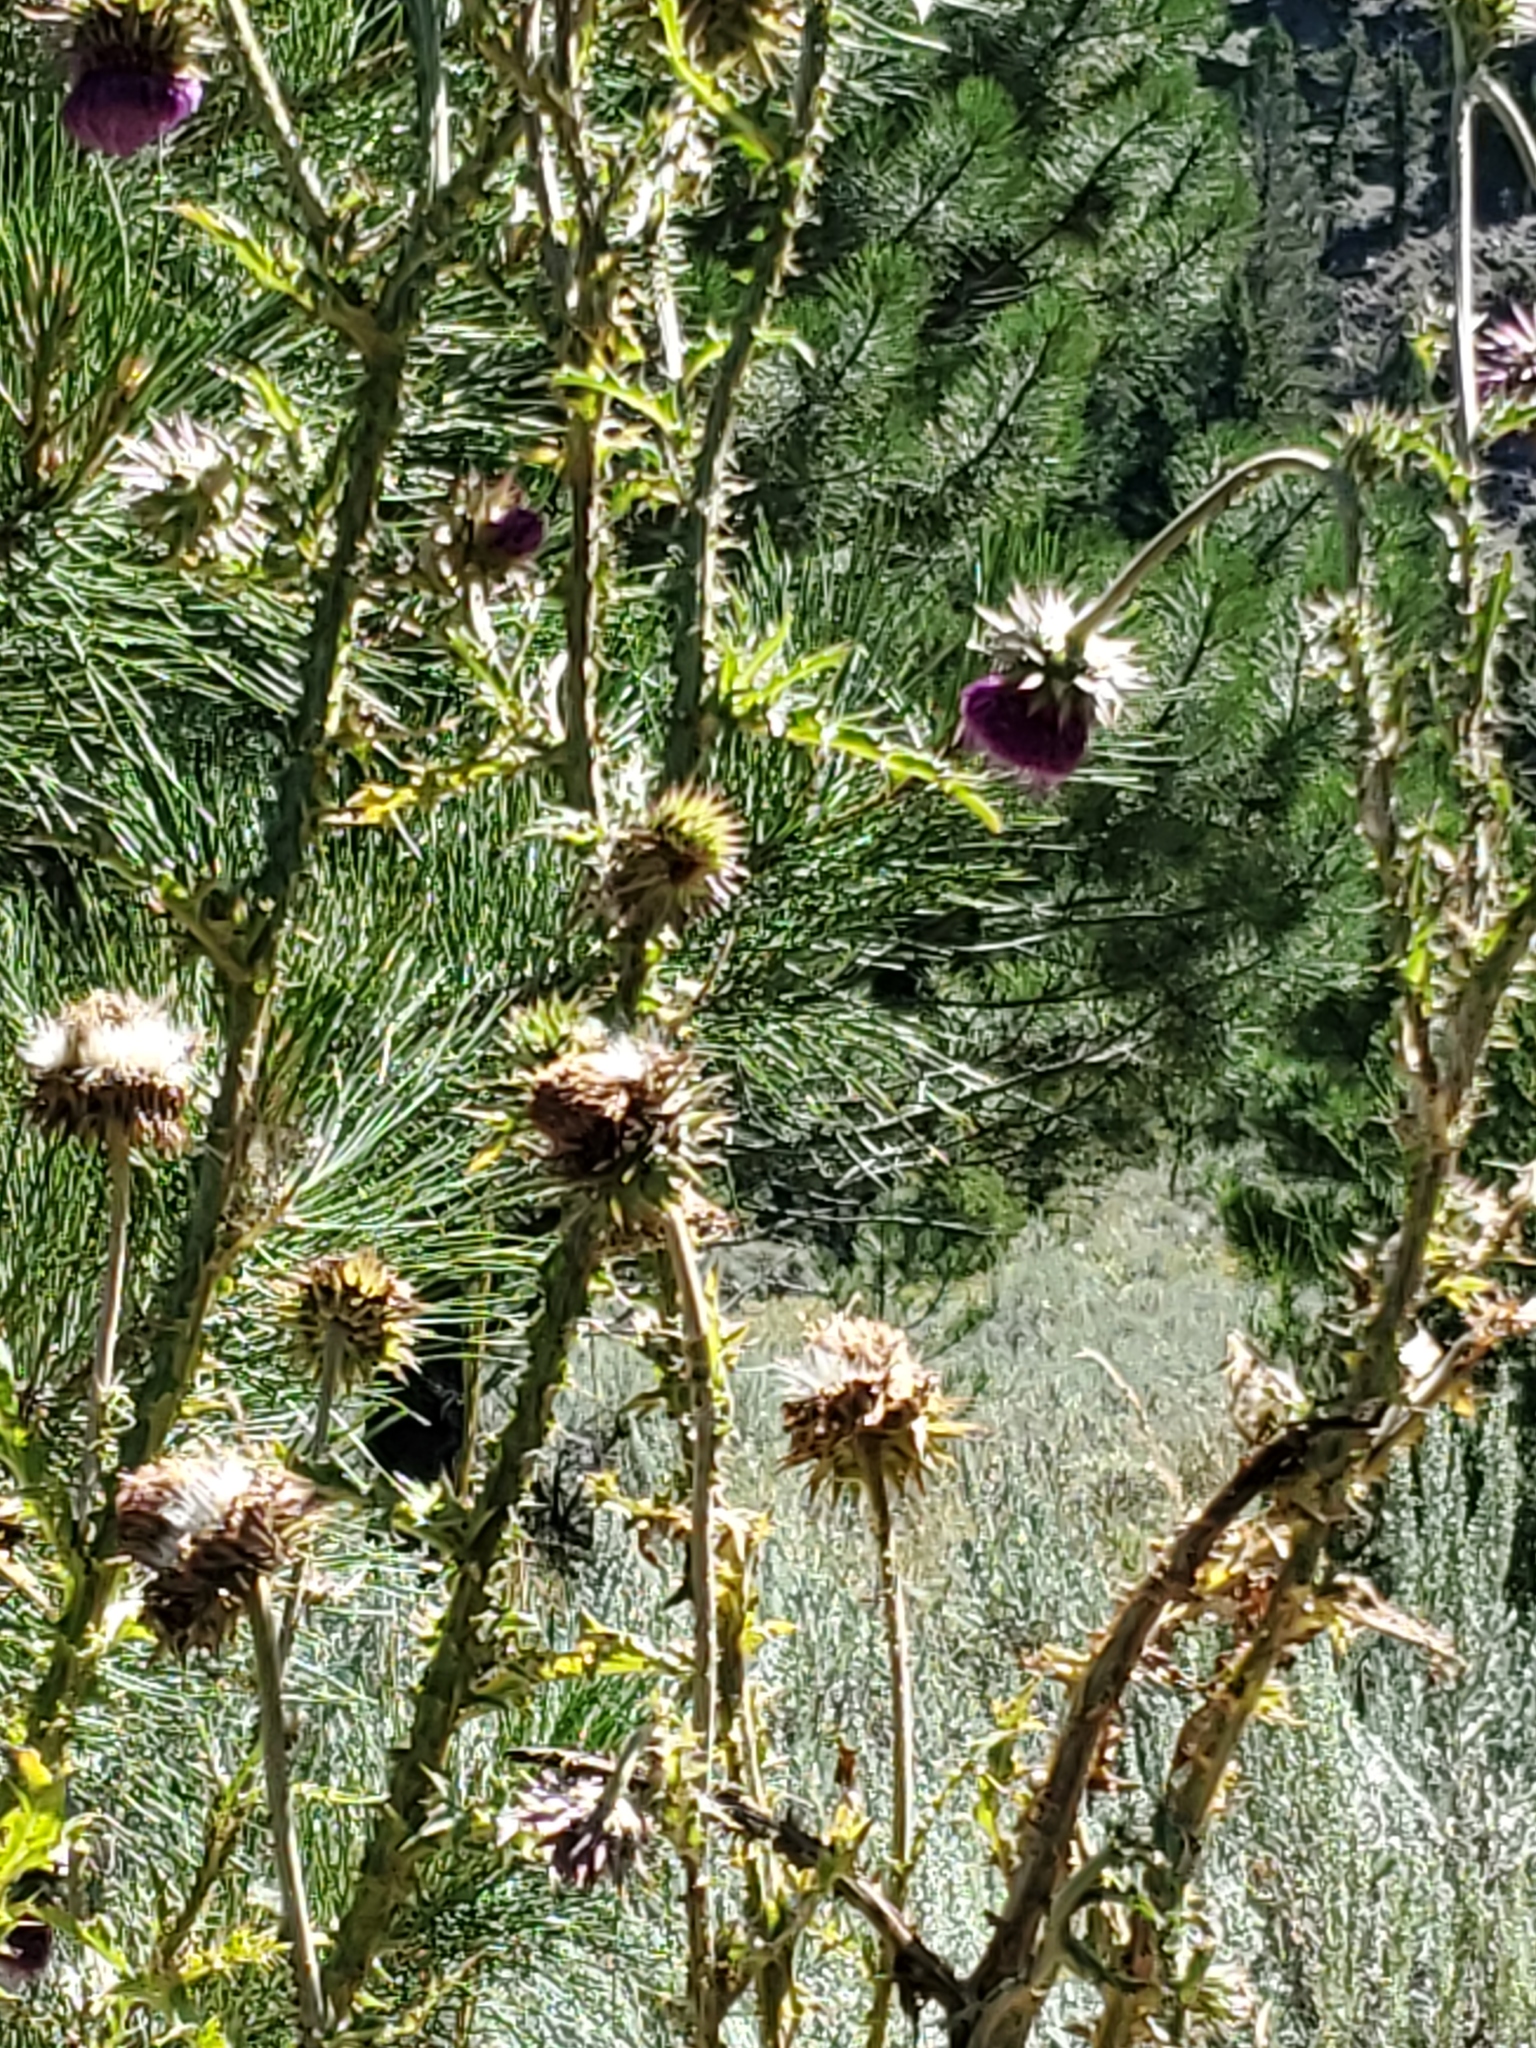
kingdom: Plantae
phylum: Tracheophyta
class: Magnoliopsida
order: Asterales
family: Asteraceae
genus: Carduus
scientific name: Carduus nutans
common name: Musk thistle
